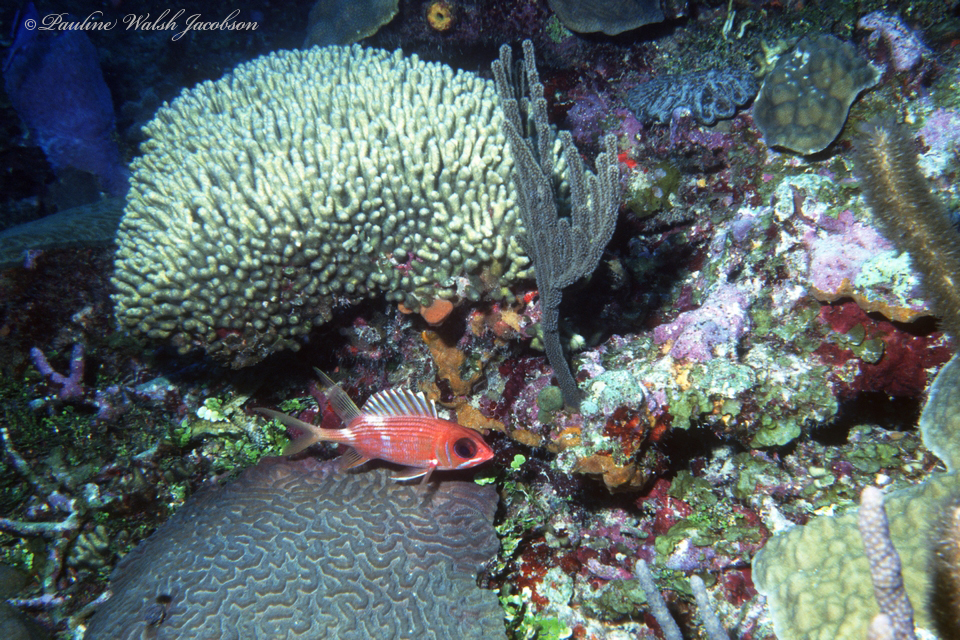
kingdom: Animalia
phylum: Chordata
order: Beryciformes
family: Holocentridae
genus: Holocentrus
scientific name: Holocentrus rufus
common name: Longspine squirrelfish
